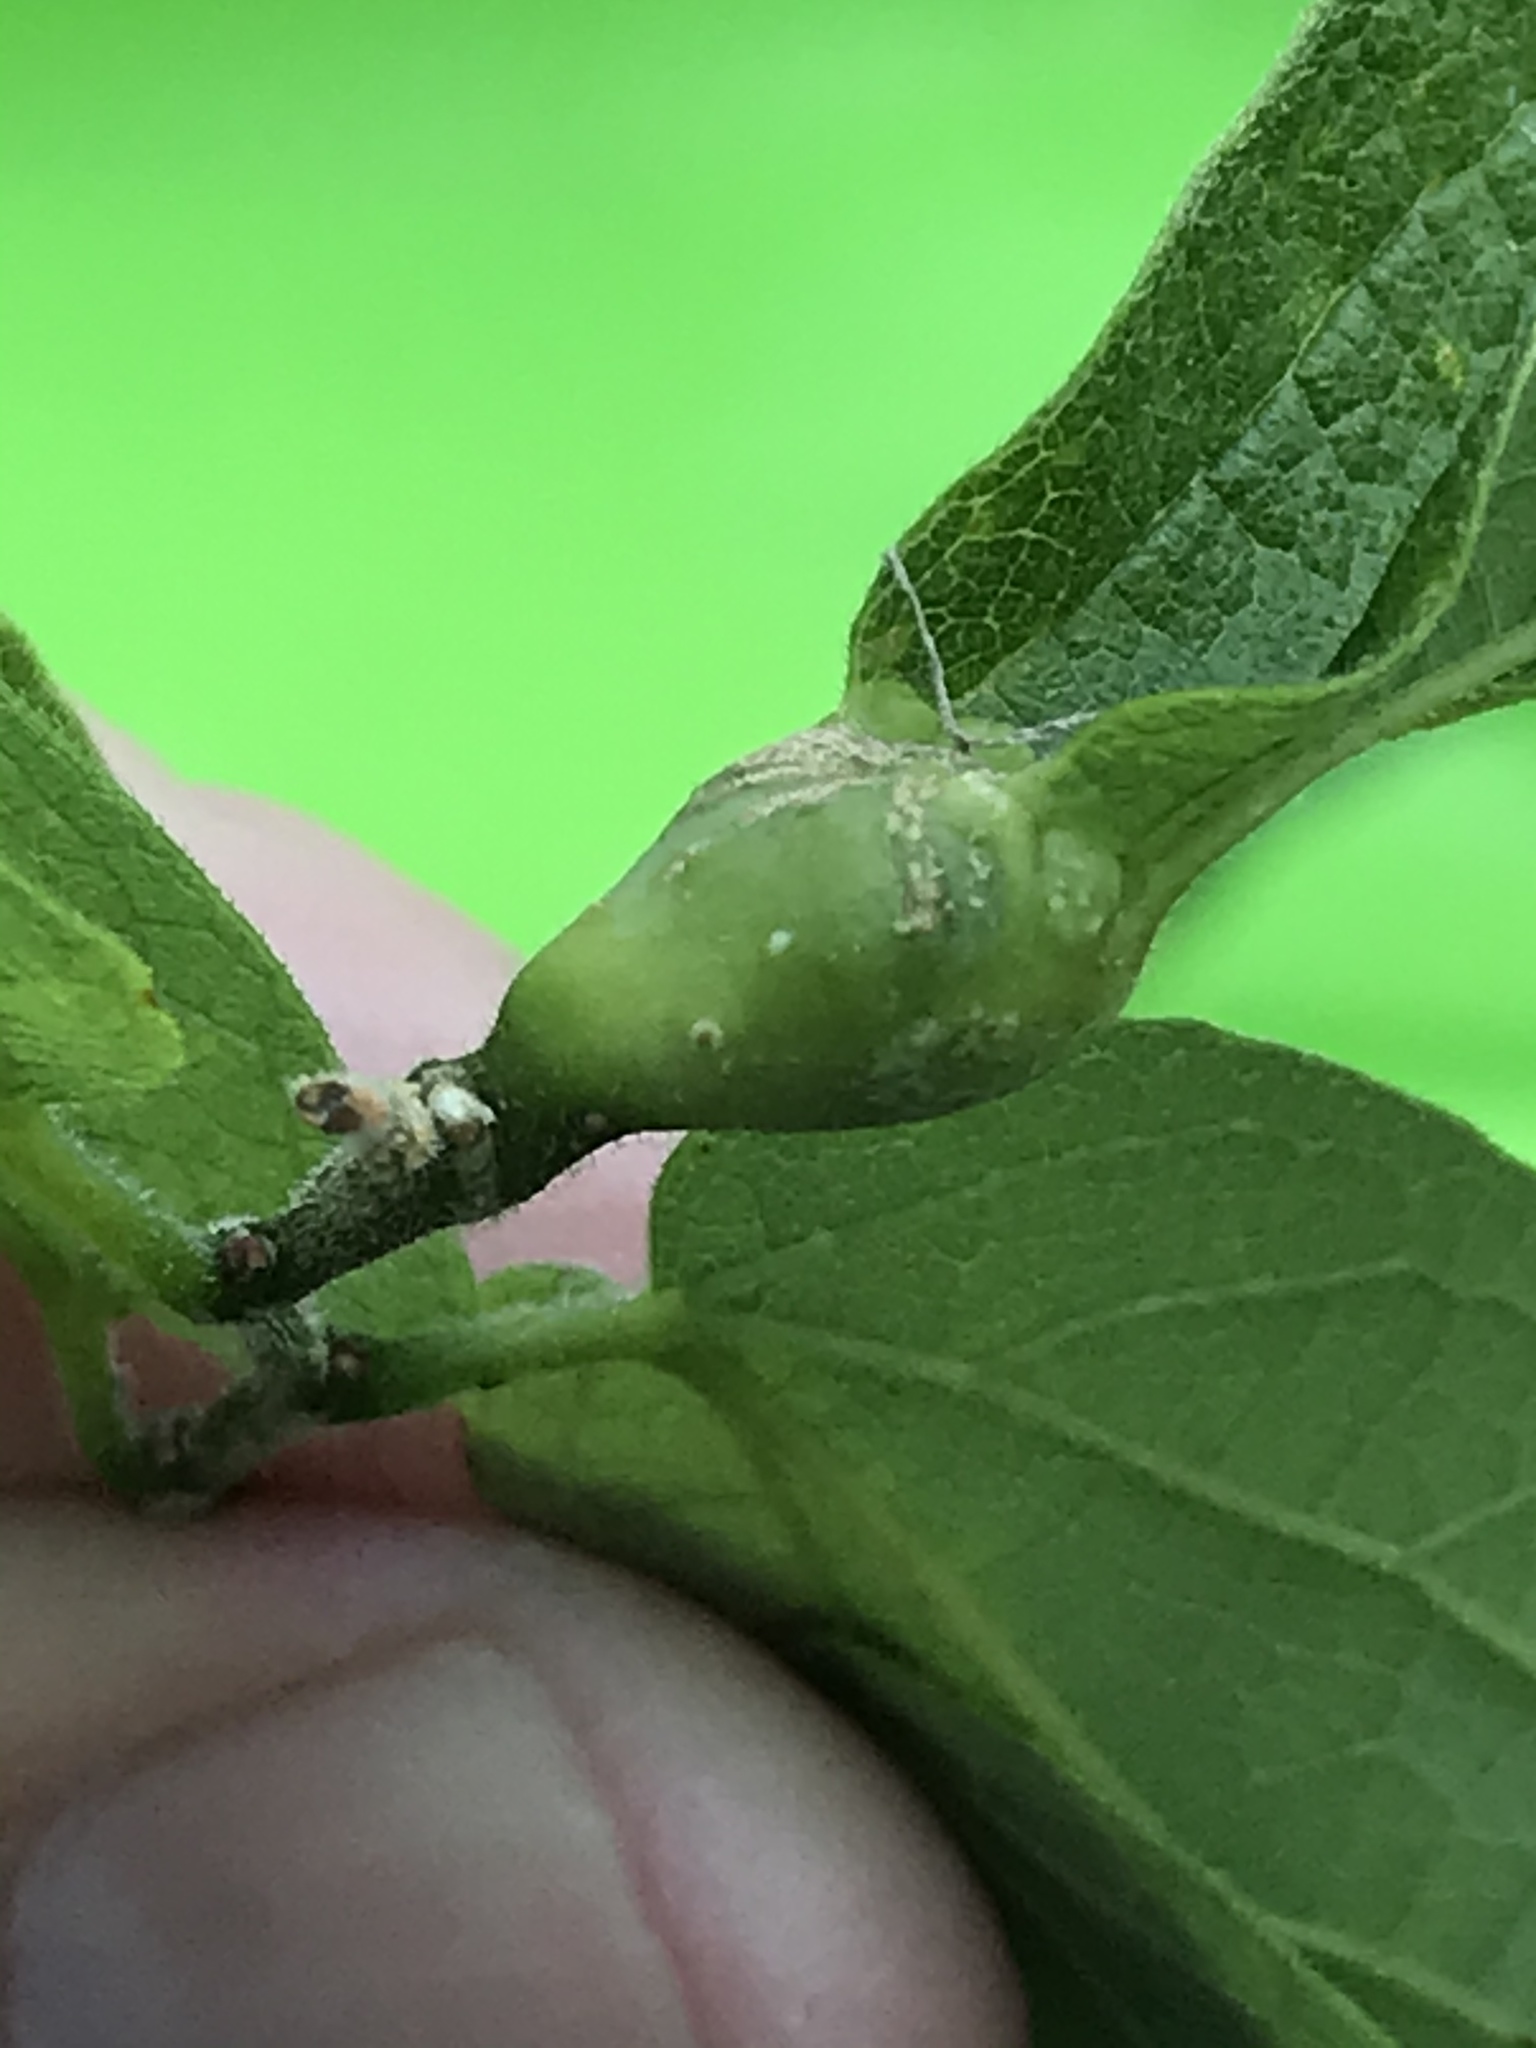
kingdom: Animalia
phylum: Arthropoda
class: Insecta
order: Hemiptera
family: Aphalaridae
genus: Pachypsylla
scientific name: Pachypsylla venusta
